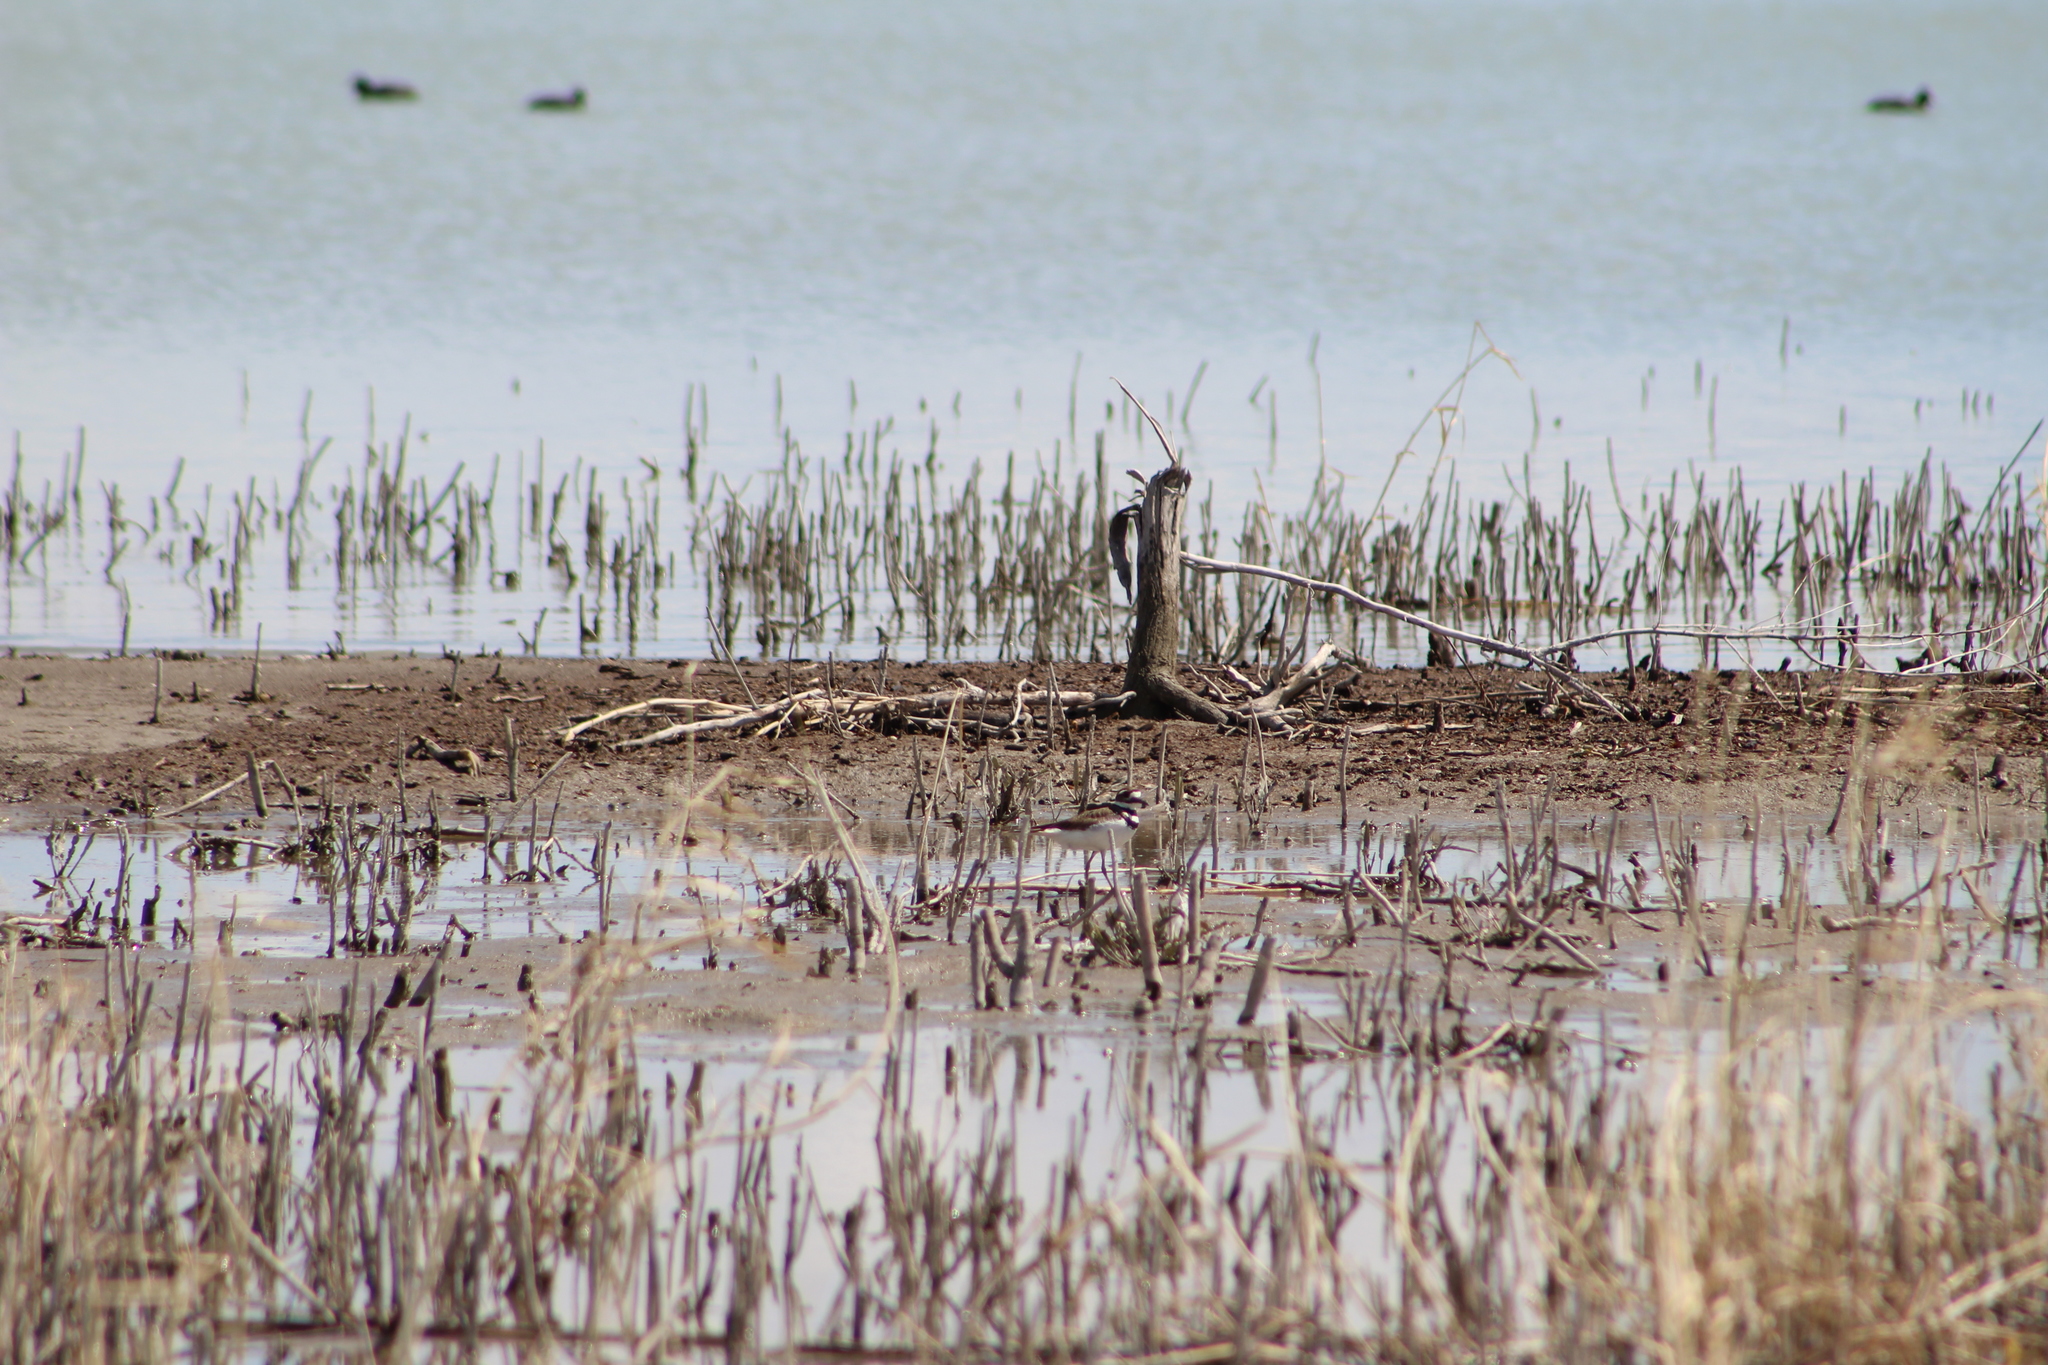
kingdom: Animalia
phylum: Chordata
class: Aves
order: Charadriiformes
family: Charadriidae
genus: Charadrius
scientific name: Charadrius vociferus
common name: Killdeer
